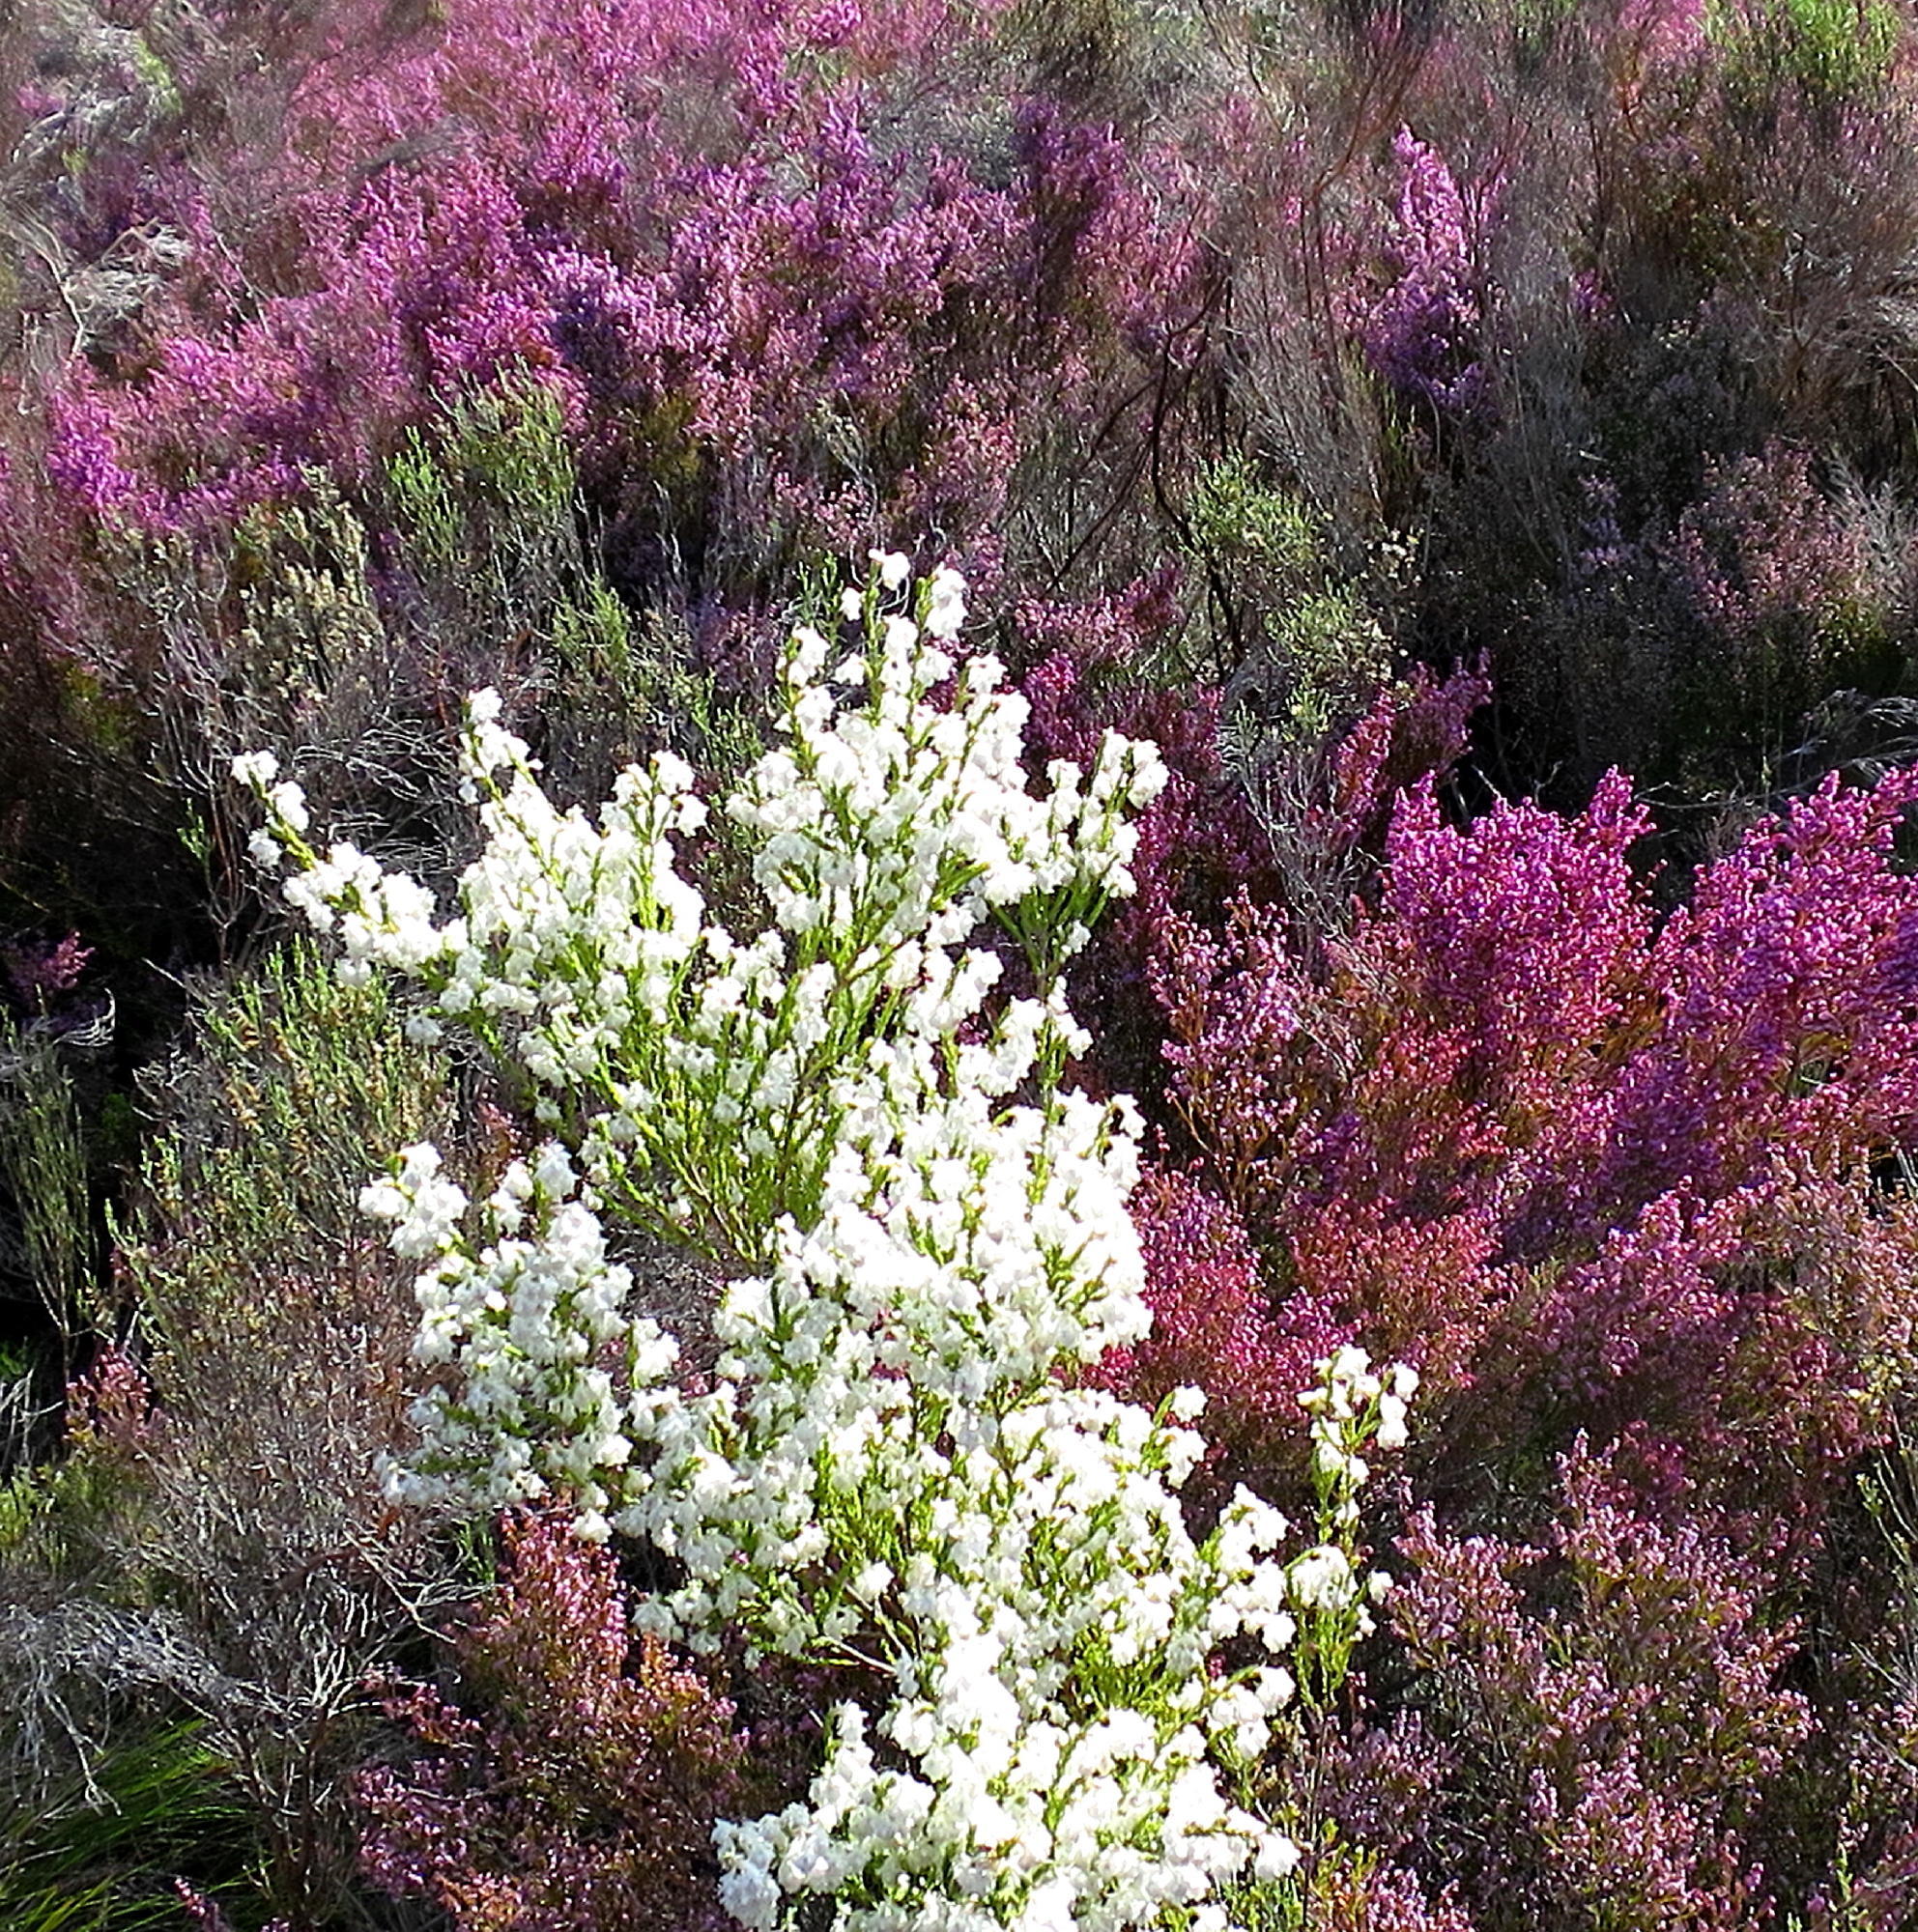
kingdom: Plantae
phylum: Tracheophyta
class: Magnoliopsida
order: Ericales
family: Ericaceae
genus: Erica
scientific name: Erica fimbriata
